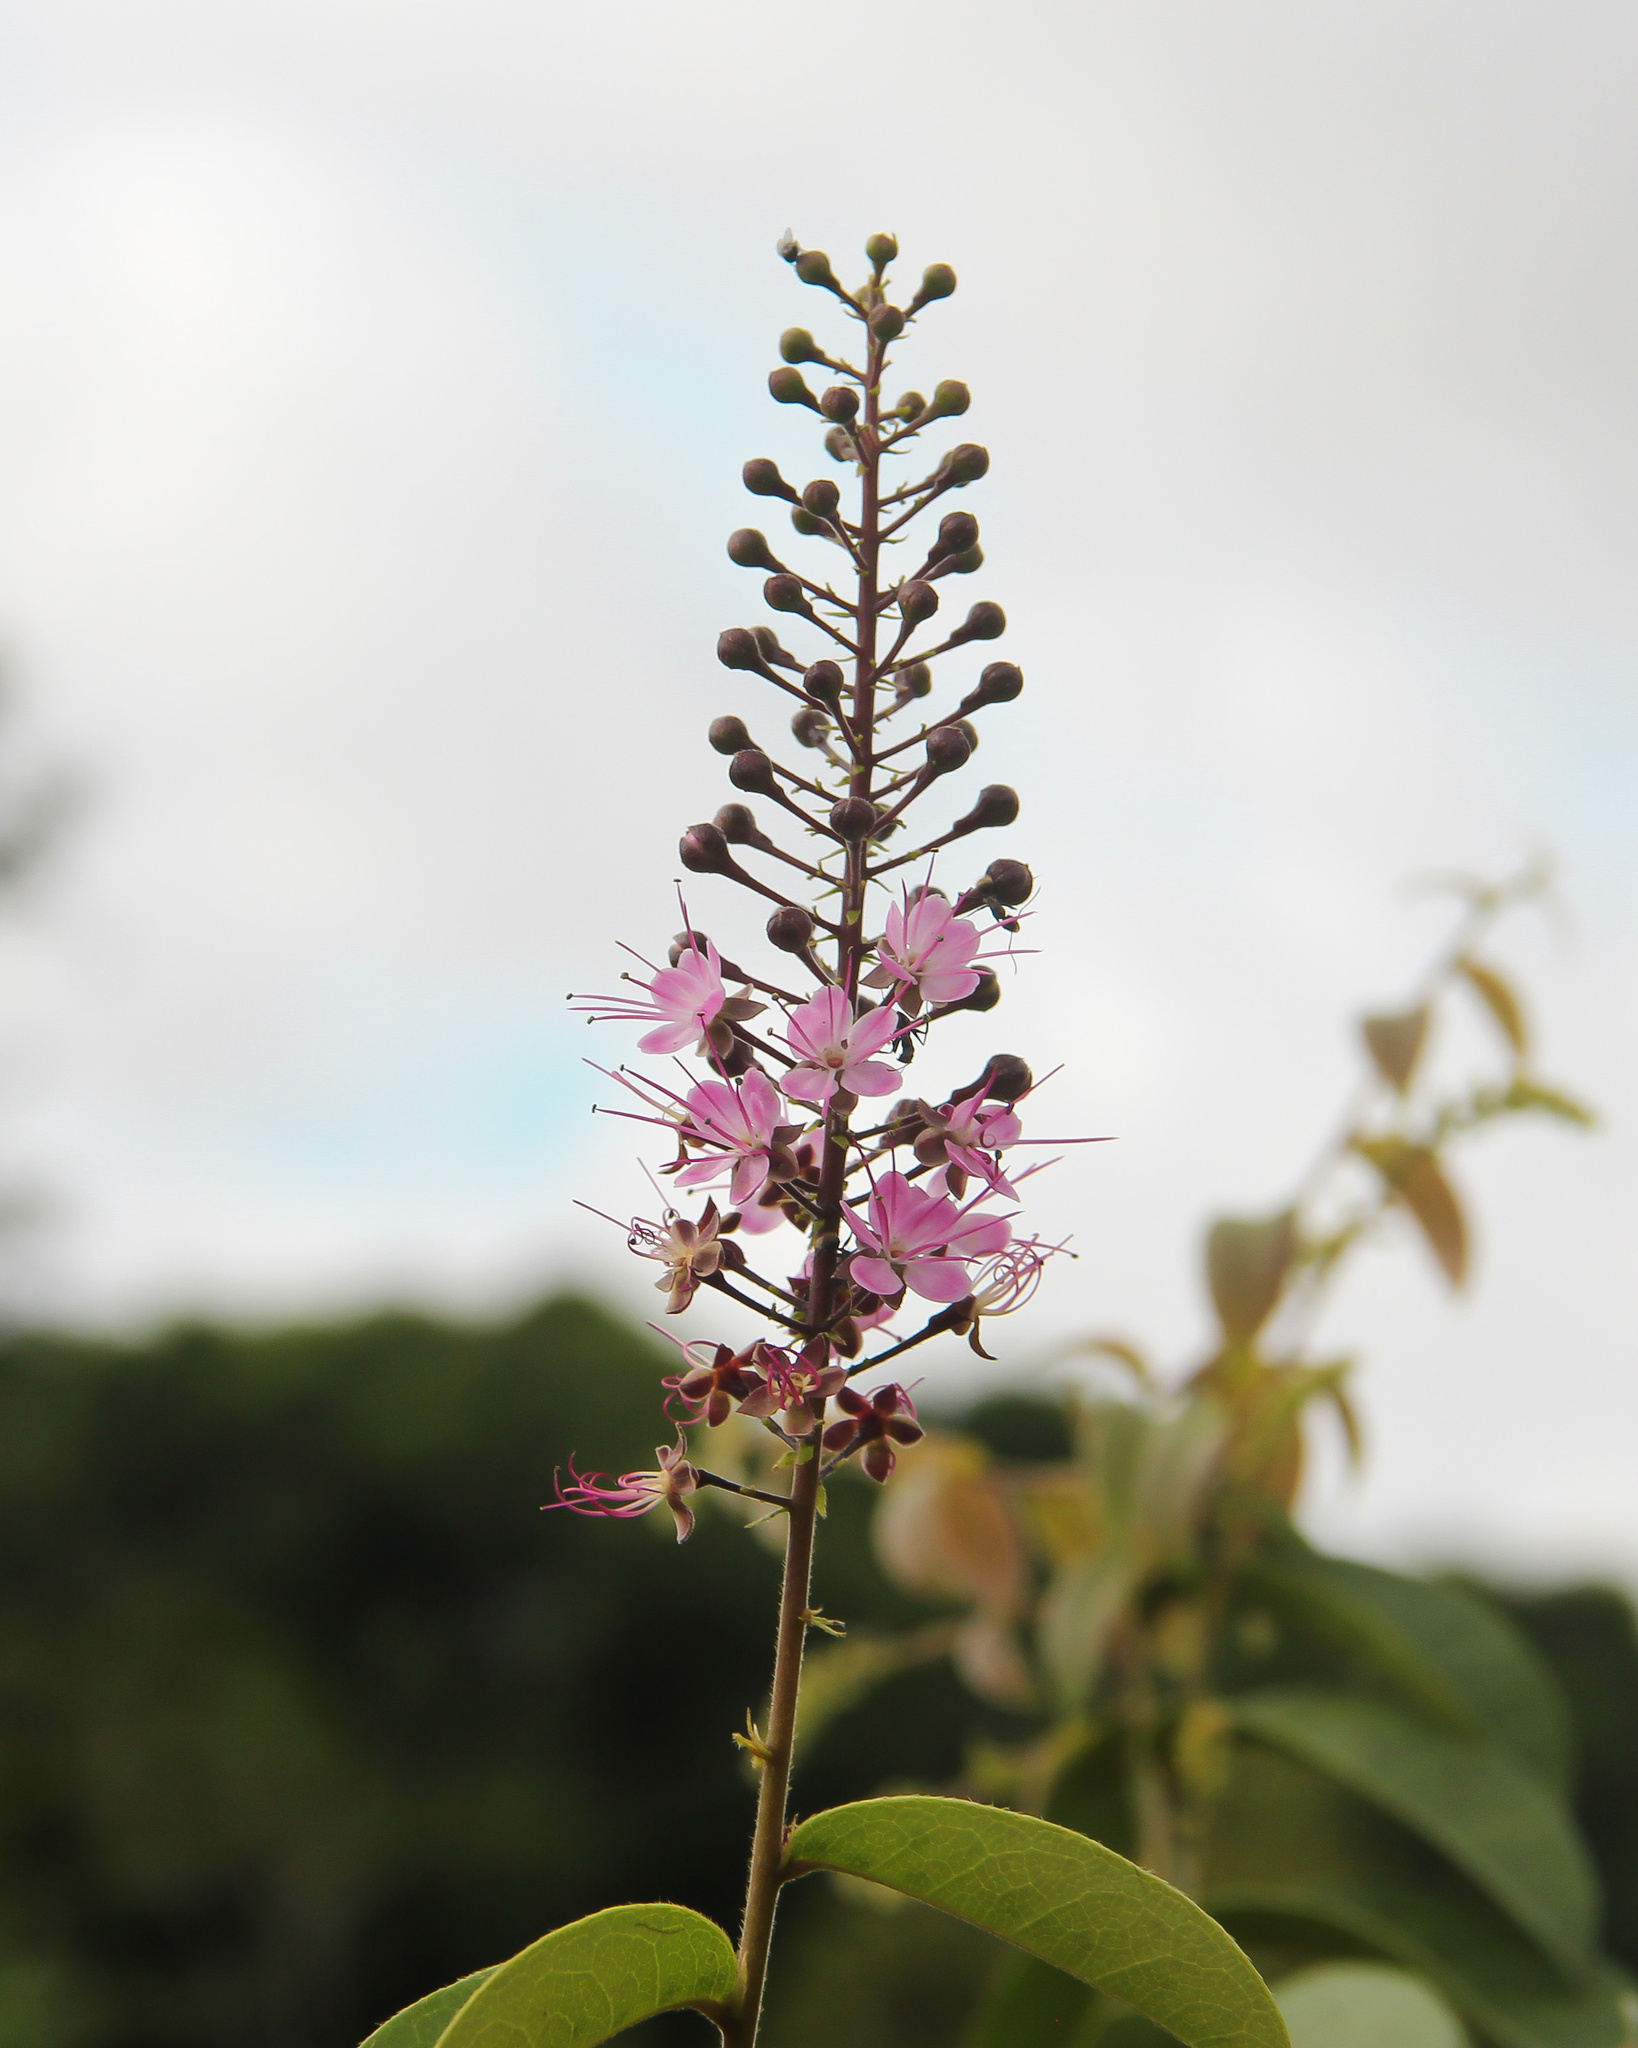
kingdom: Plantae
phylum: Tracheophyta
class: Magnoliopsida
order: Malpighiales
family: Chrysobalanaceae
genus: Hirtella
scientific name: Hirtella racemosa
